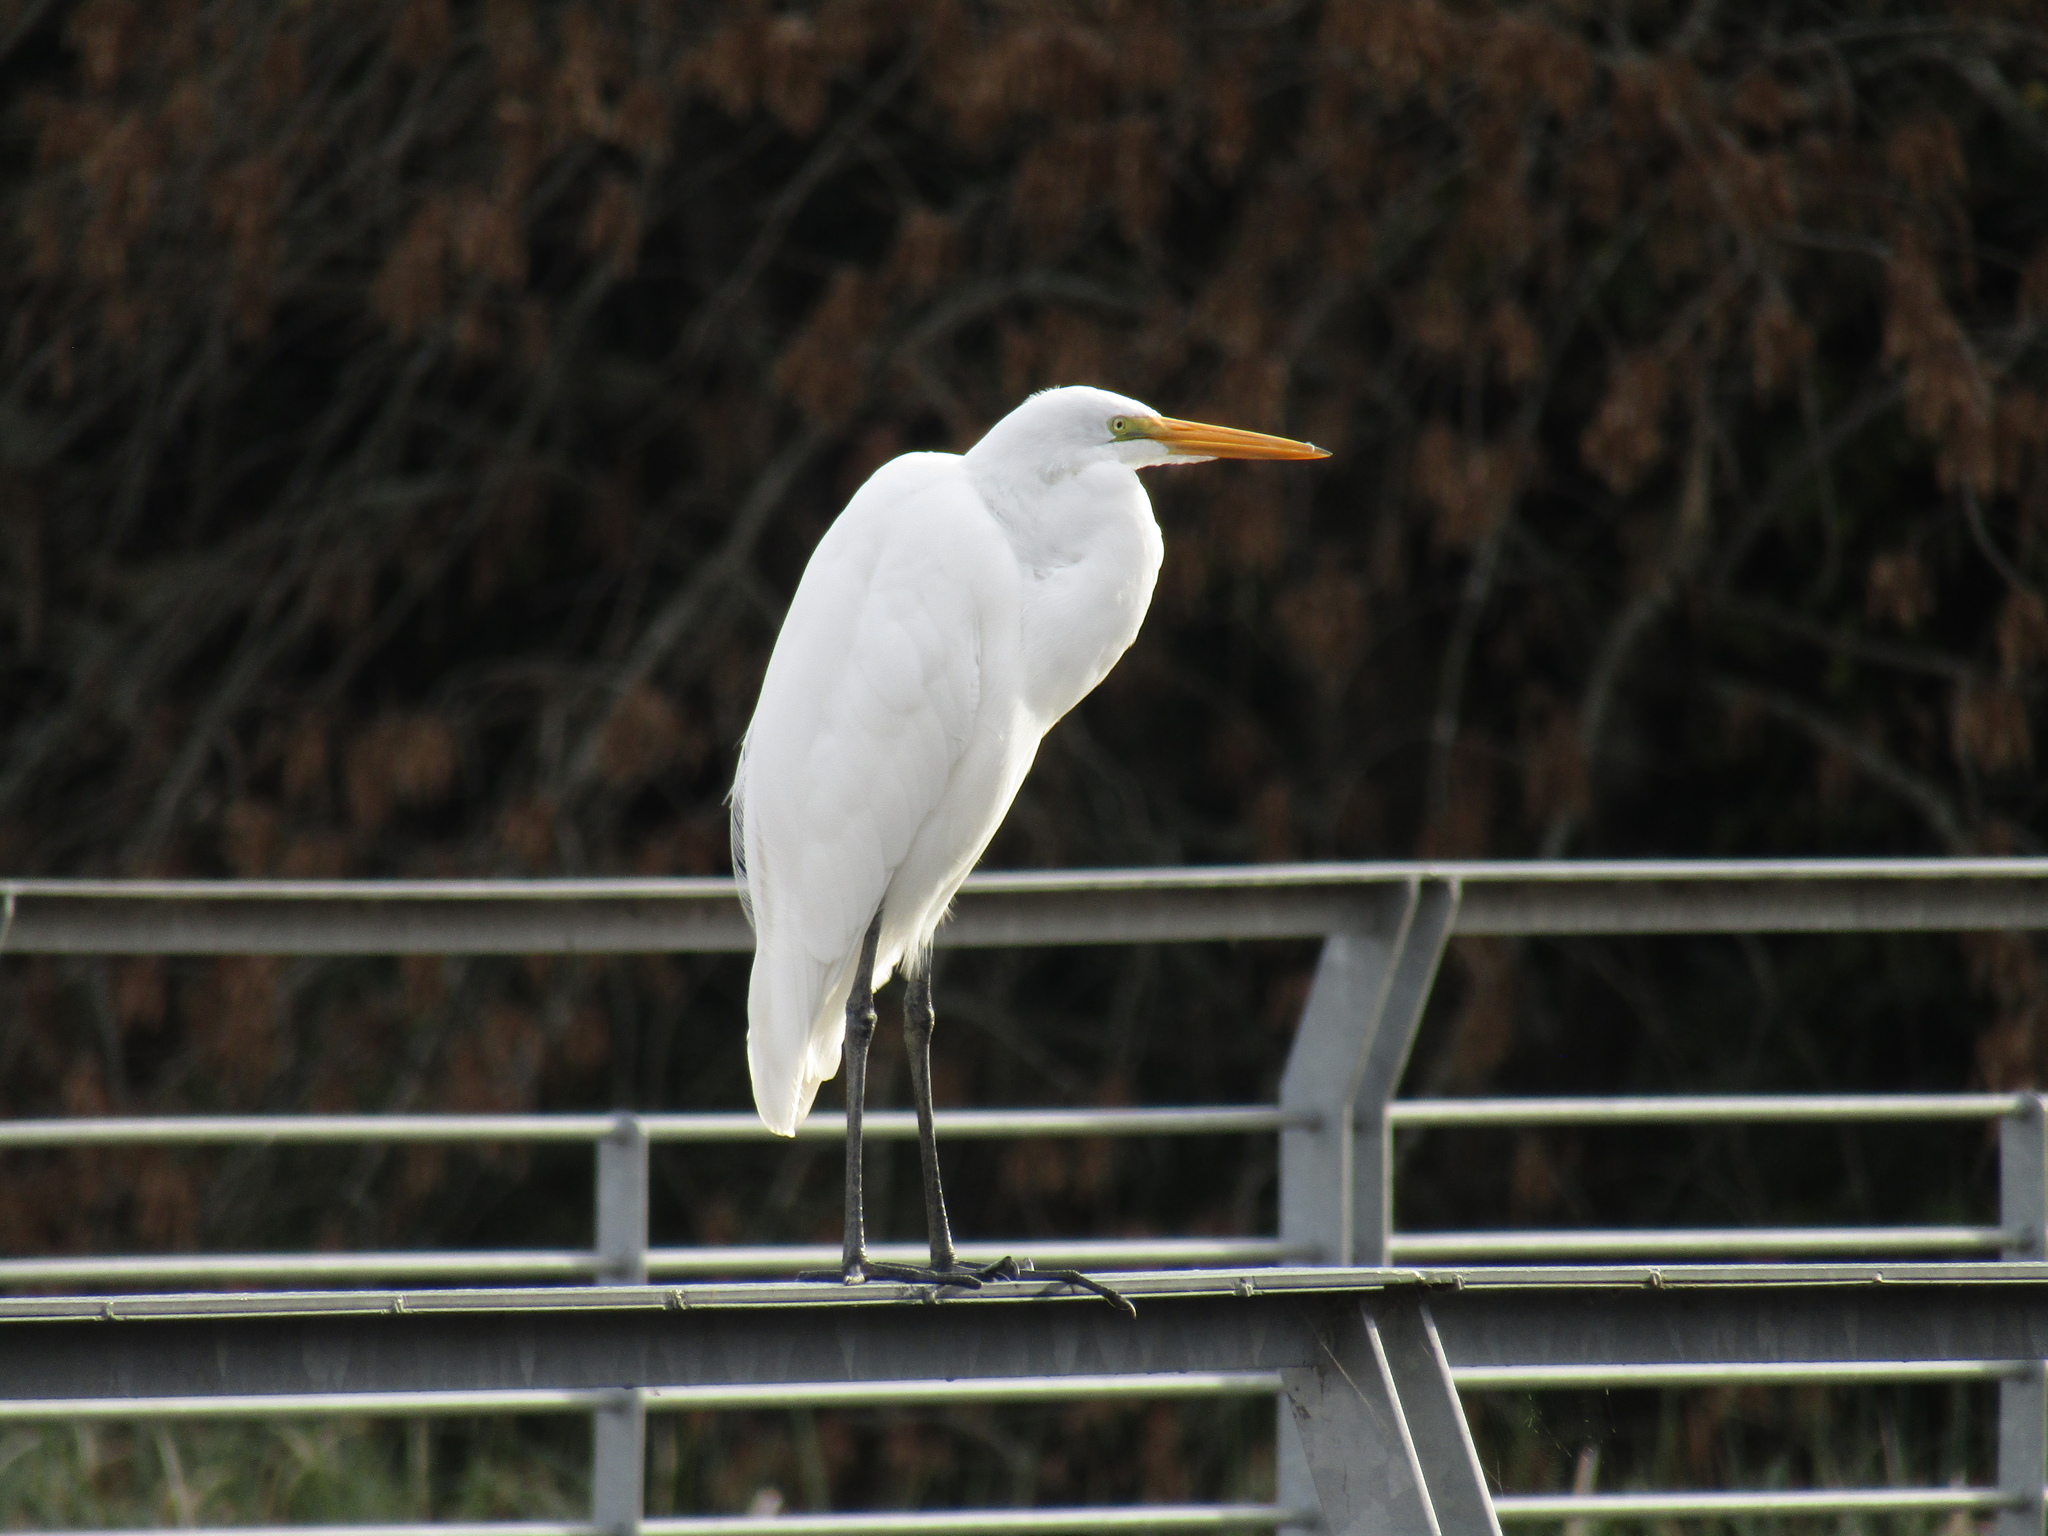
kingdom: Animalia
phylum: Chordata
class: Aves
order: Pelecaniformes
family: Ardeidae
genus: Ardea
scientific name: Ardea alba
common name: Great egret
